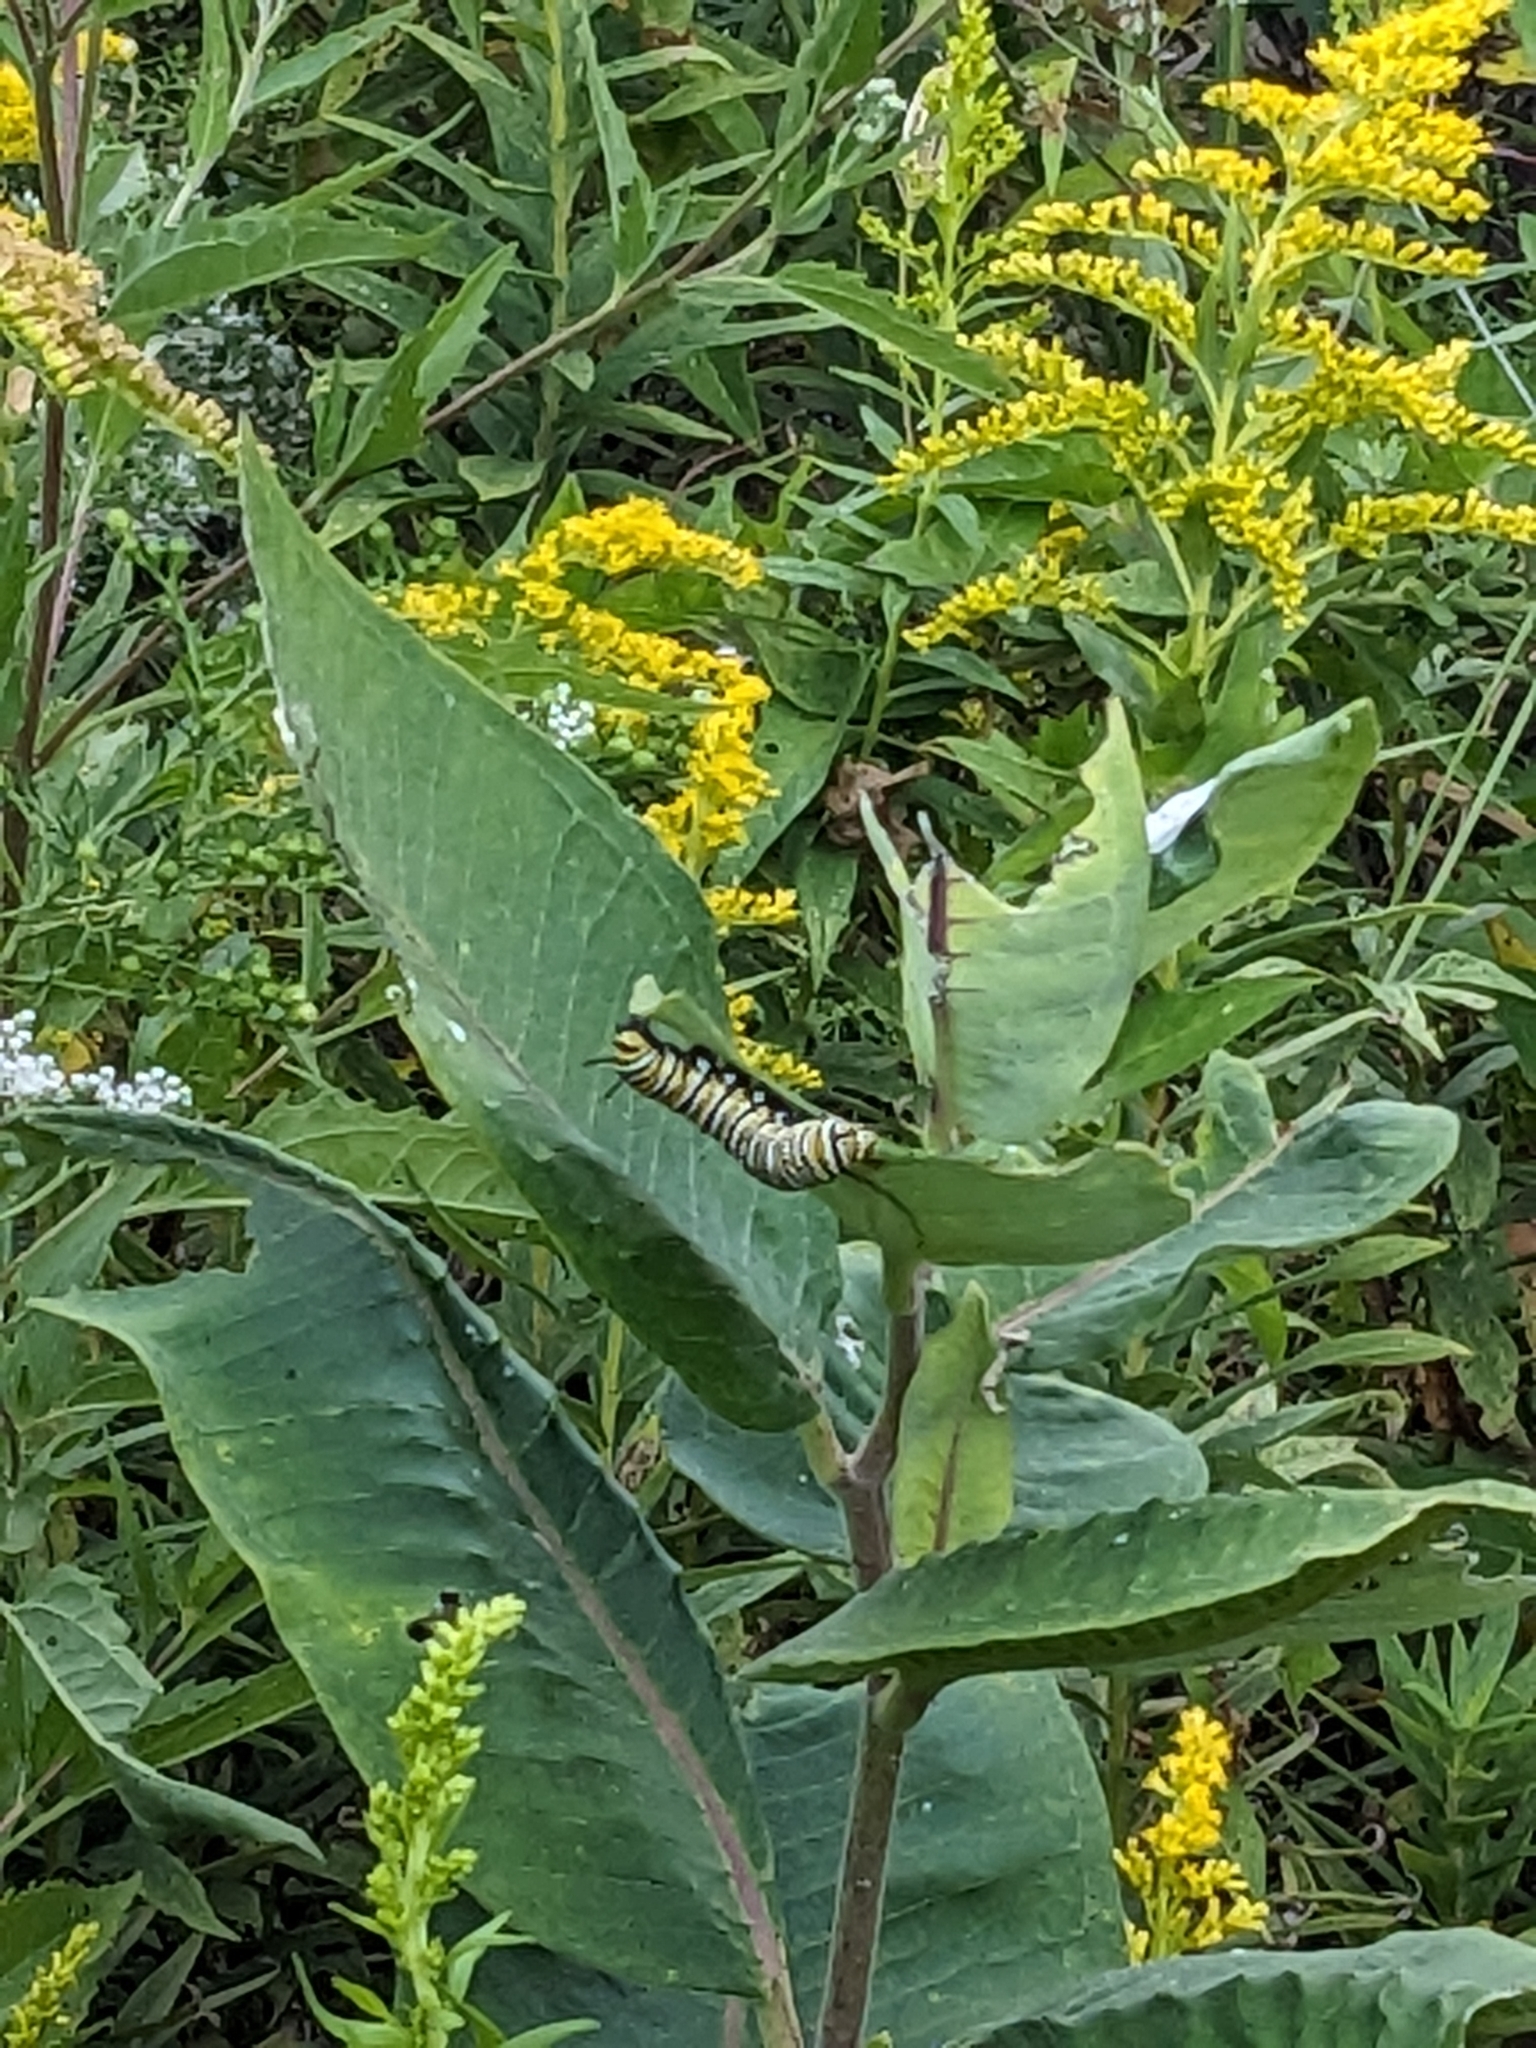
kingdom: Animalia
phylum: Arthropoda
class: Insecta
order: Lepidoptera
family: Nymphalidae
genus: Danaus
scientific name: Danaus plexippus
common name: Monarch
